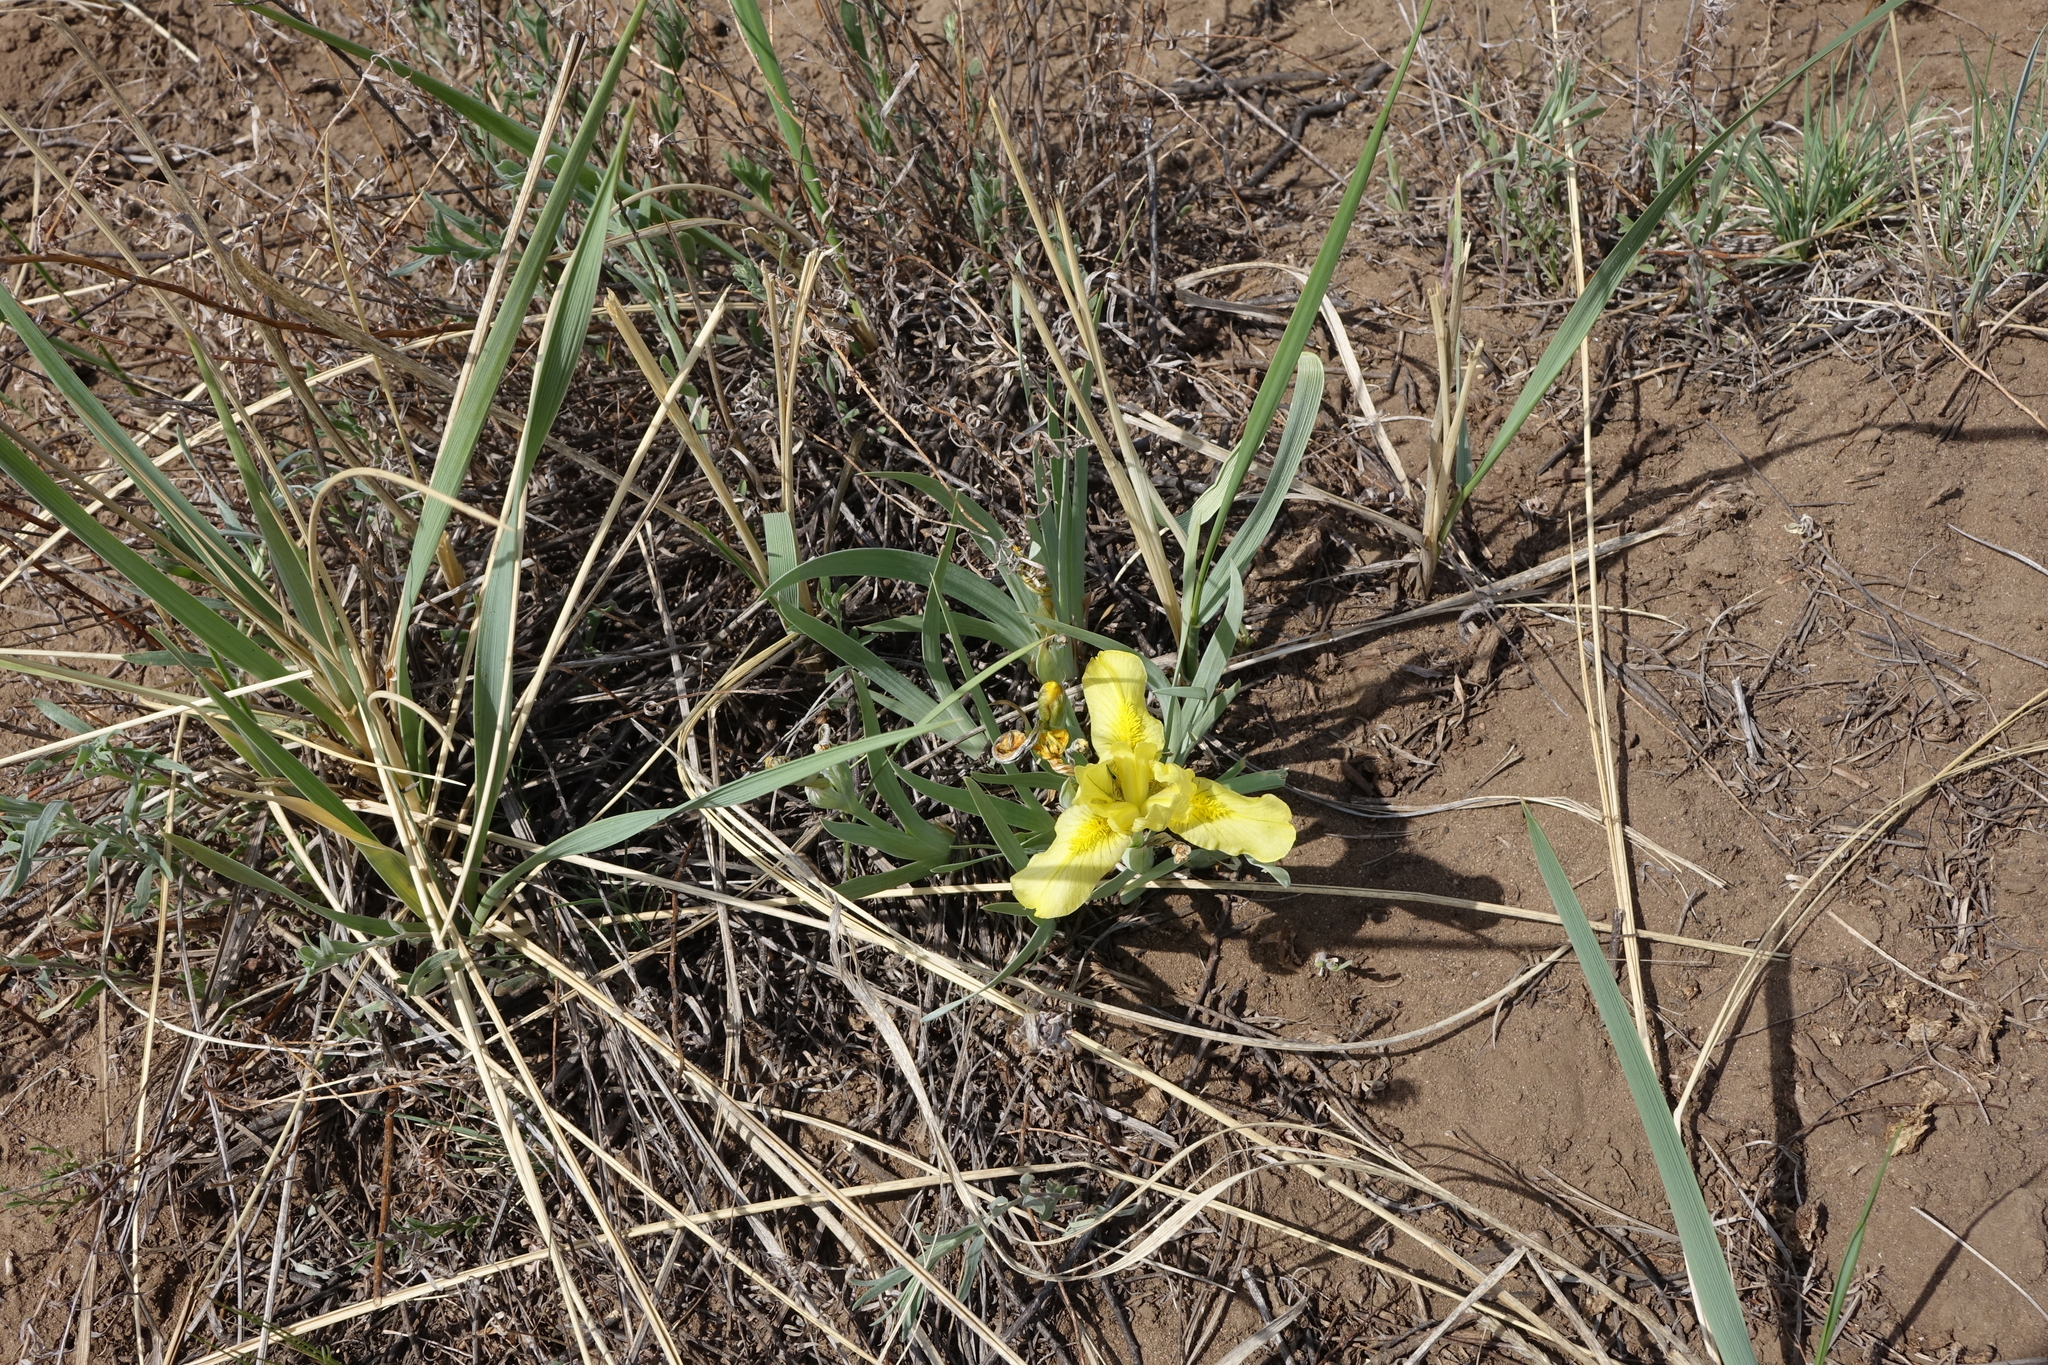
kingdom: Plantae
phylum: Tracheophyta
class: Liliopsida
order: Asparagales
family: Iridaceae
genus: Iris
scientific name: Iris humilis
